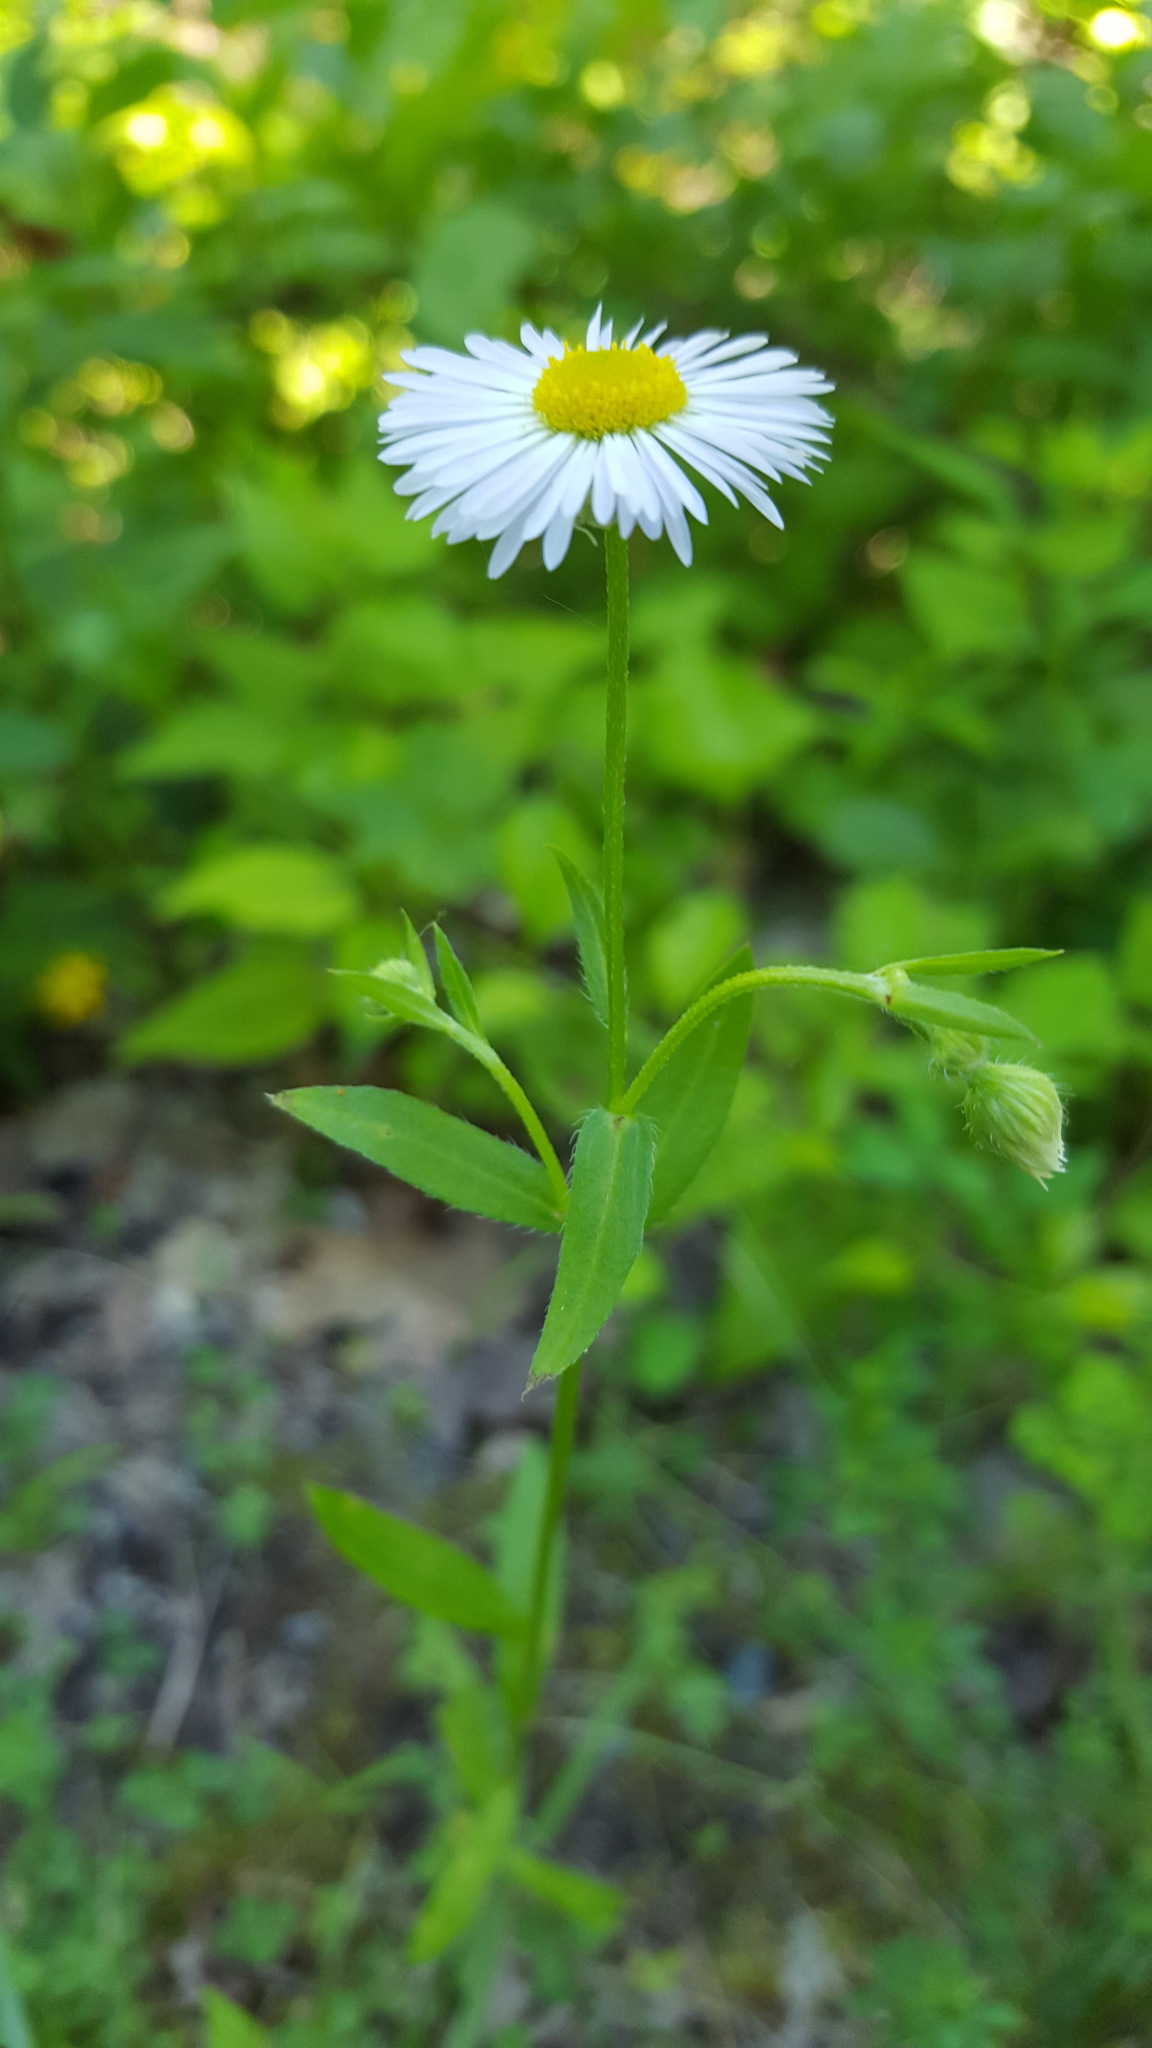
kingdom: Plantae
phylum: Tracheophyta
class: Magnoliopsida
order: Asterales
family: Asteraceae
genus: Erigeron
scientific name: Erigeron strigosus
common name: Common eastern fleabane
